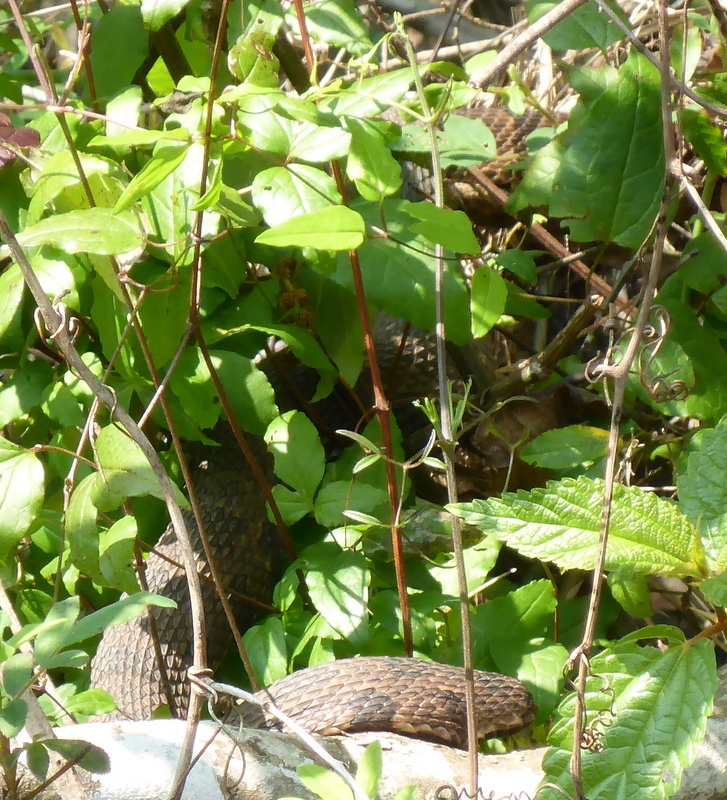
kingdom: Animalia
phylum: Chordata
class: Squamata
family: Colubridae
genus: Nerodia
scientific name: Nerodia taxispilota
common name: Brown water snake
